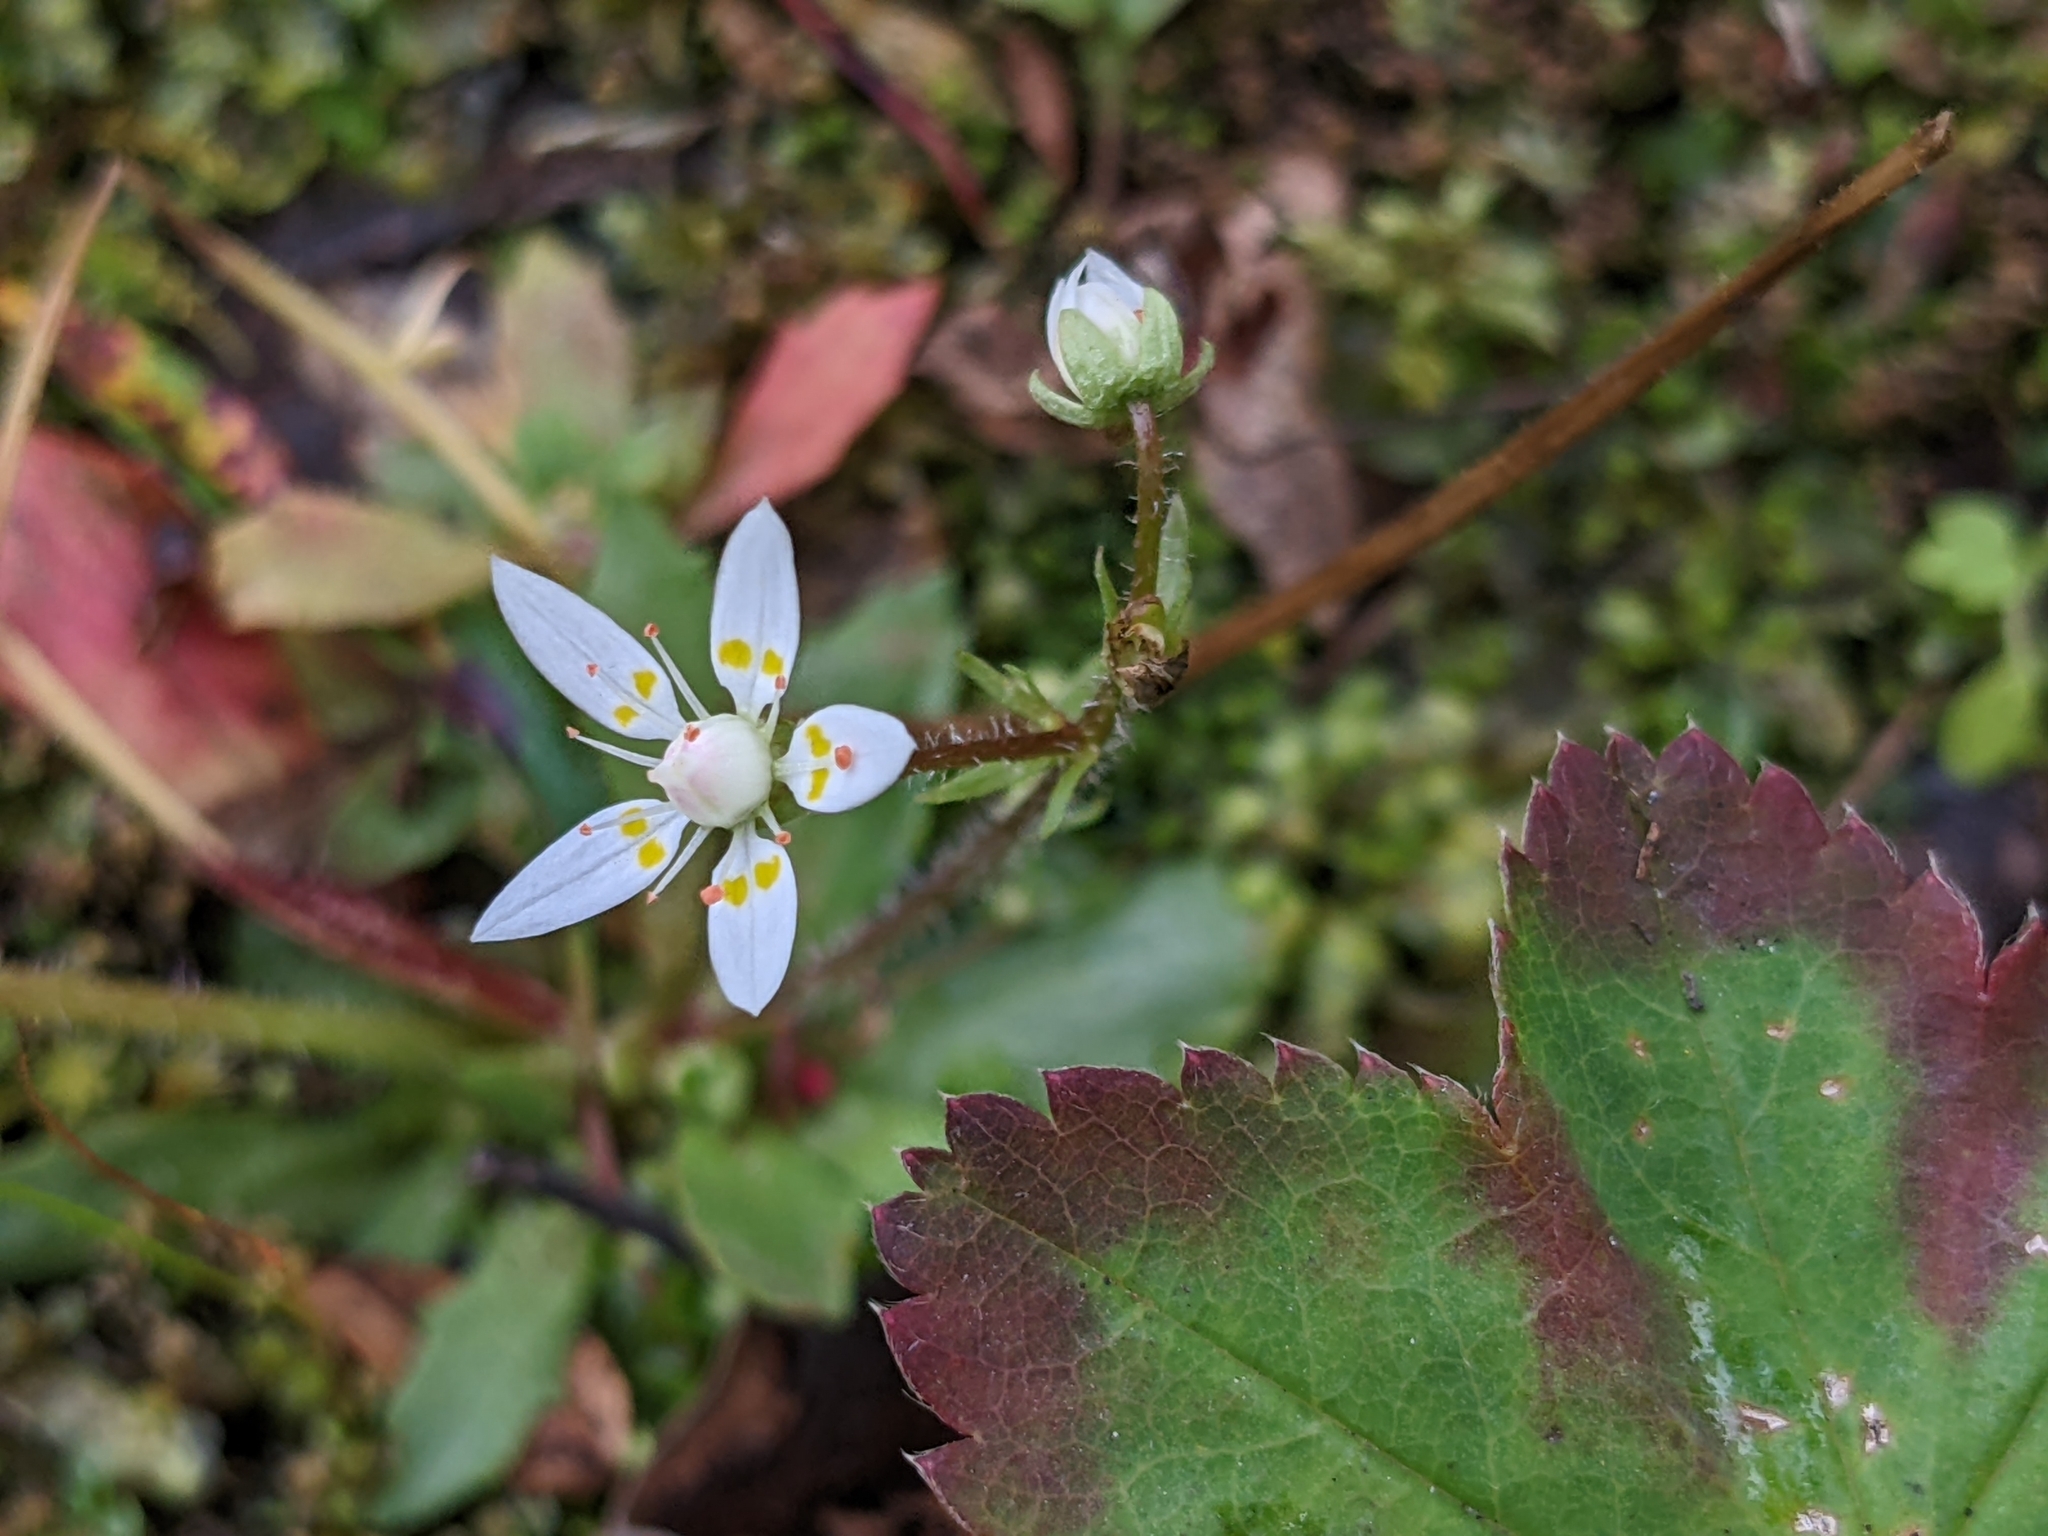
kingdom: Plantae
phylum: Tracheophyta
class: Magnoliopsida
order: Saxifragales
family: Saxifragaceae
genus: Micranthes
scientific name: Micranthes stellaris
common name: Starry saxifrage
